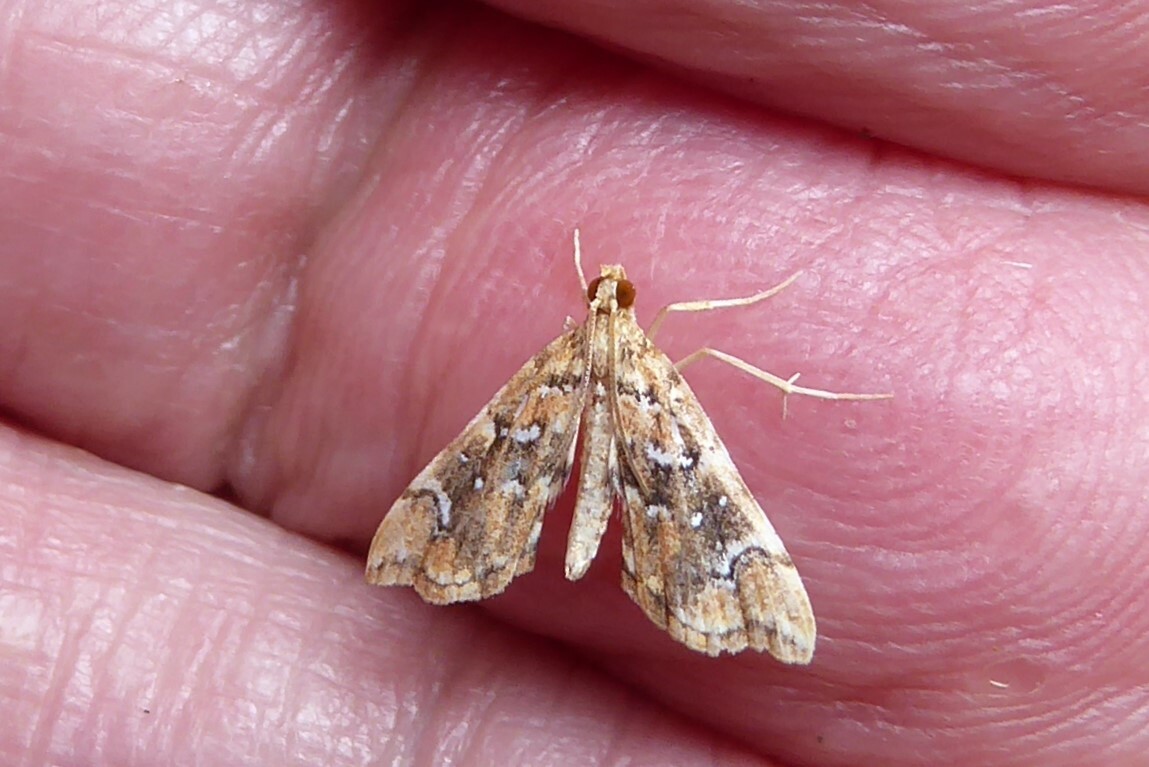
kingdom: Animalia
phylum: Arthropoda
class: Insecta
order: Lepidoptera
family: Pyralidae
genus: Musotima
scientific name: Musotima nitidalis
